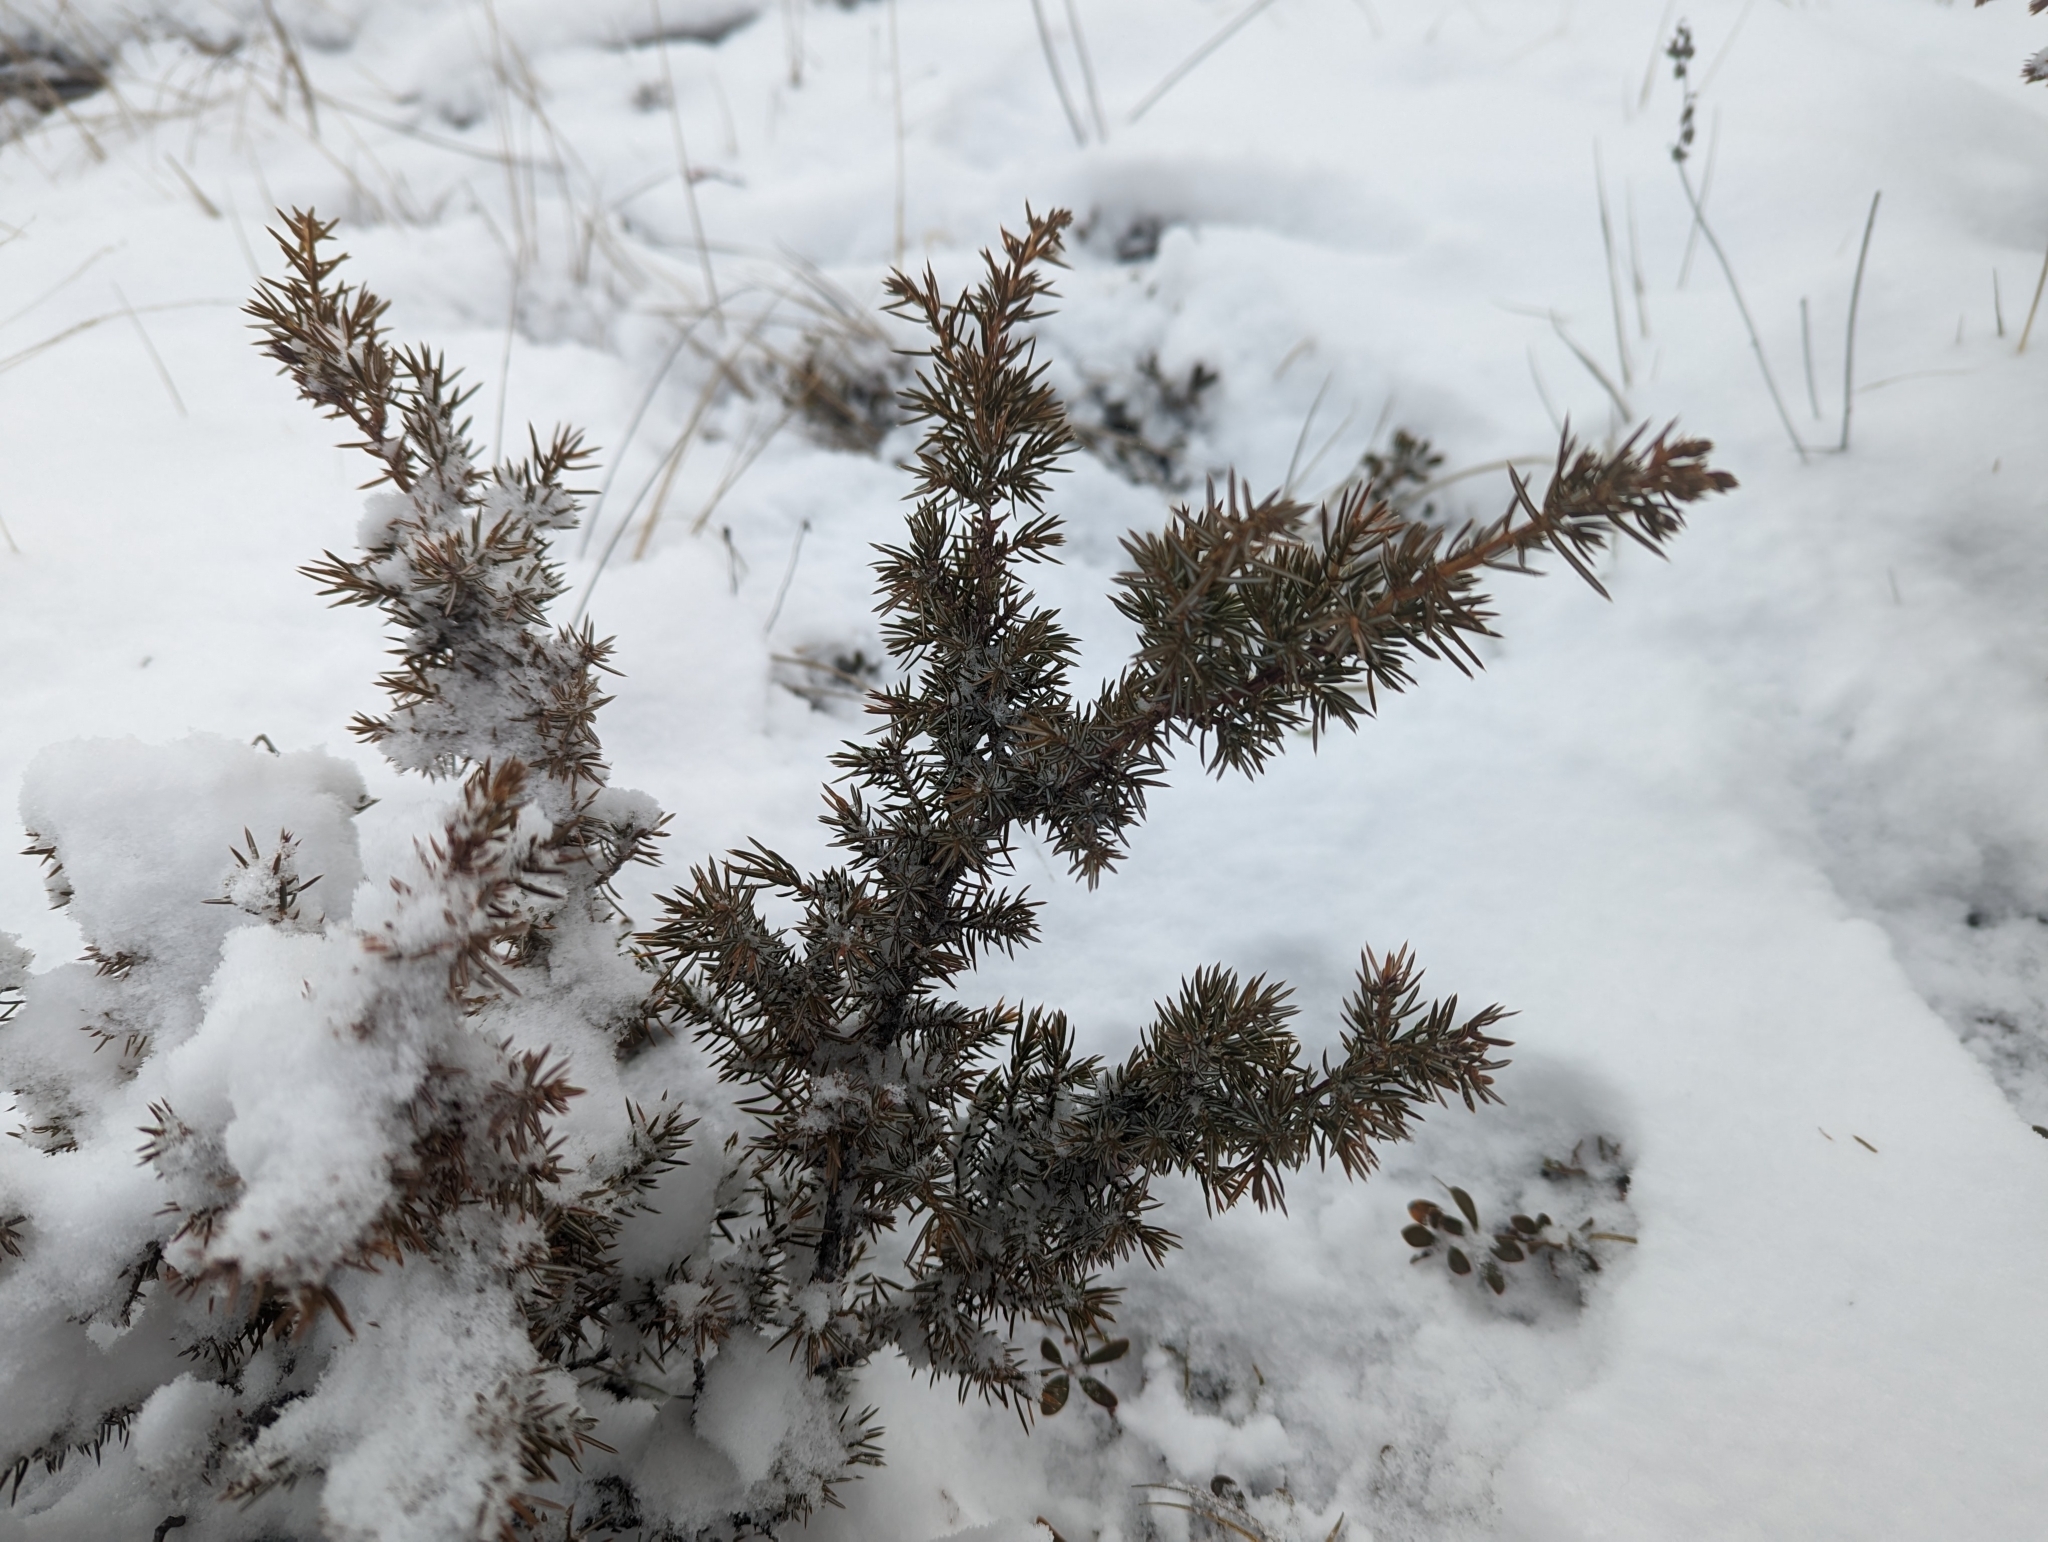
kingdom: Plantae
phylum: Tracheophyta
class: Pinopsida
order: Pinales
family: Cupressaceae
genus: Juniperus
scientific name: Juniperus communis
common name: Common juniper
